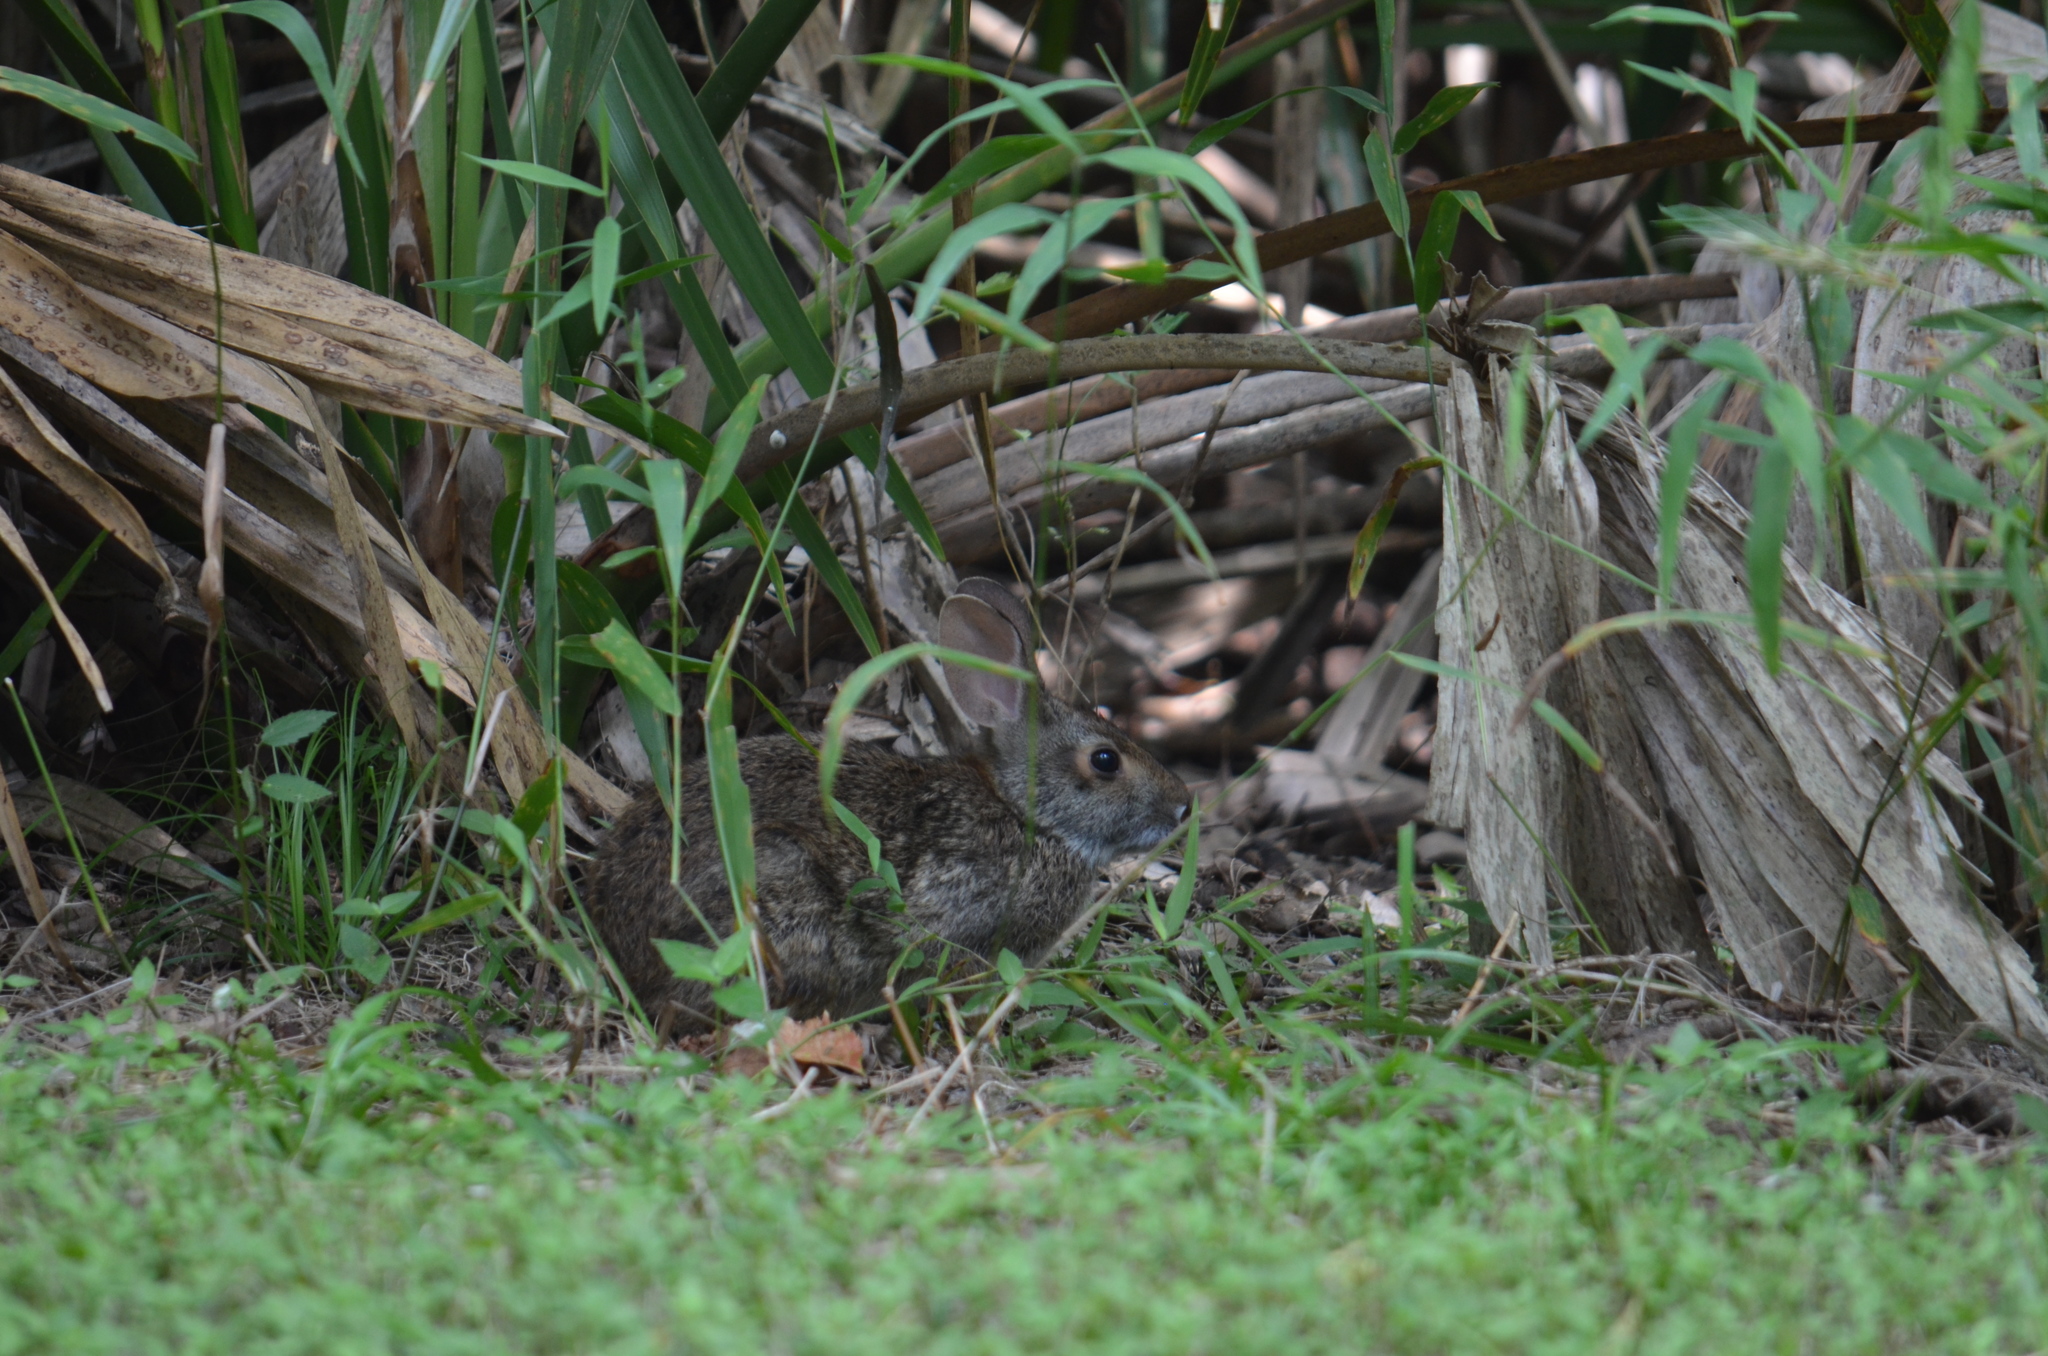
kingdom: Animalia
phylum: Chordata
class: Mammalia
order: Lagomorpha
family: Leporidae
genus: Sylvilagus
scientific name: Sylvilagus aquaticus
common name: Swamp rabbit
